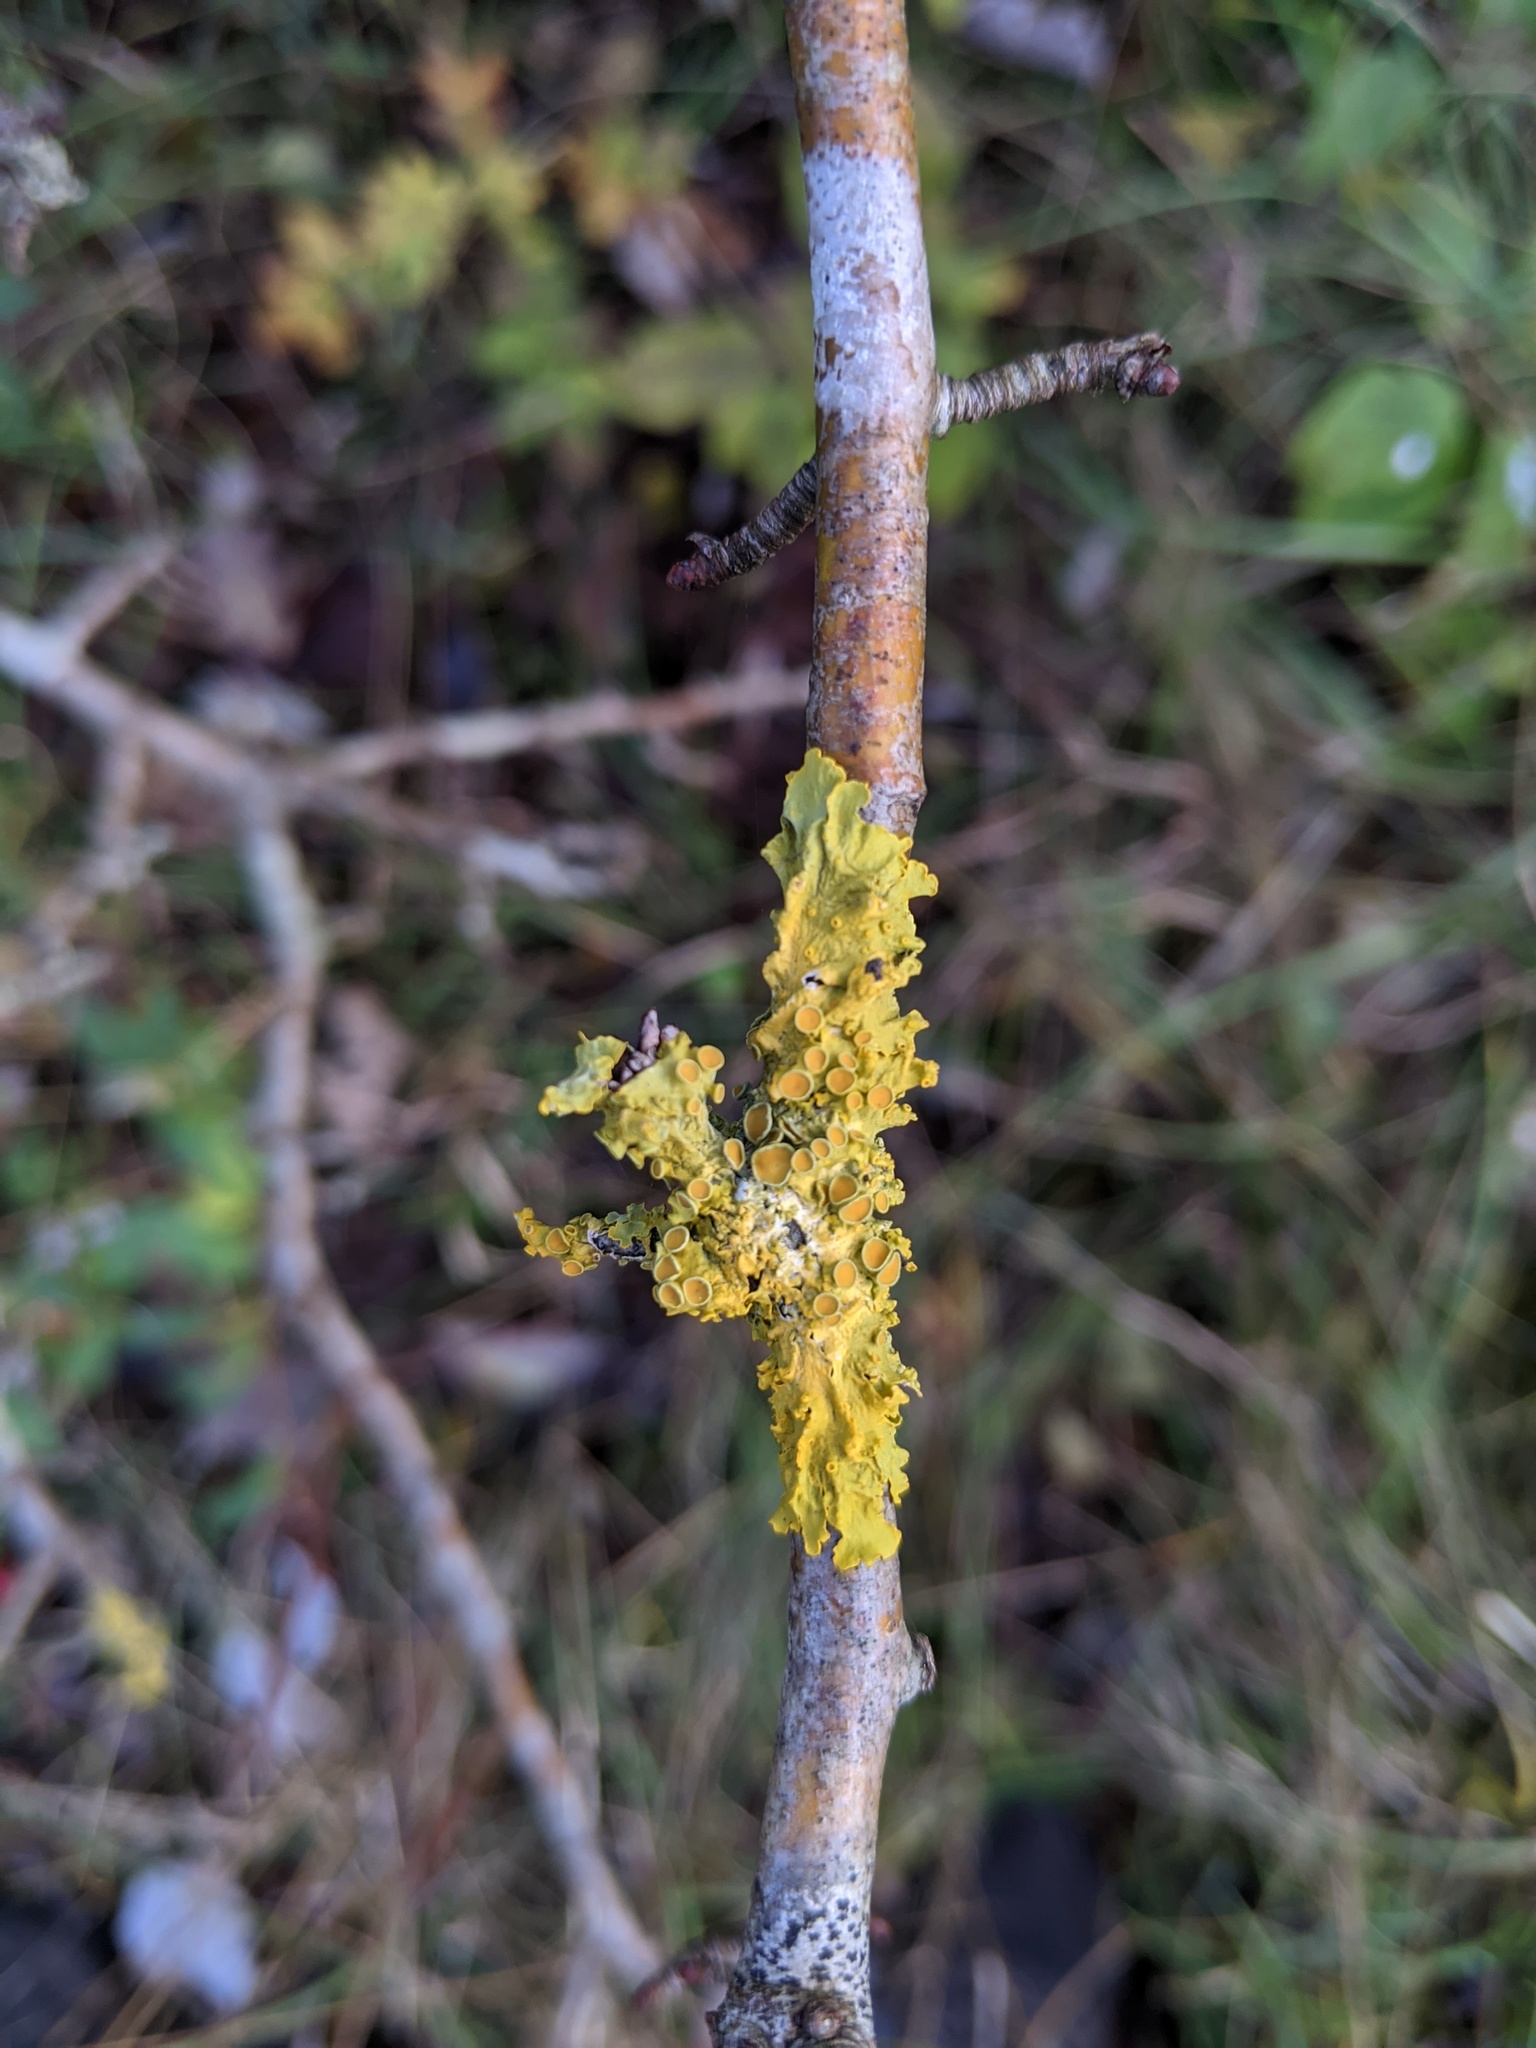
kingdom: Fungi
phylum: Ascomycota
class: Lecanoromycetes
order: Teloschistales
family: Teloschistaceae
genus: Xanthoria
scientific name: Xanthoria parietina
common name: Common orange lichen
